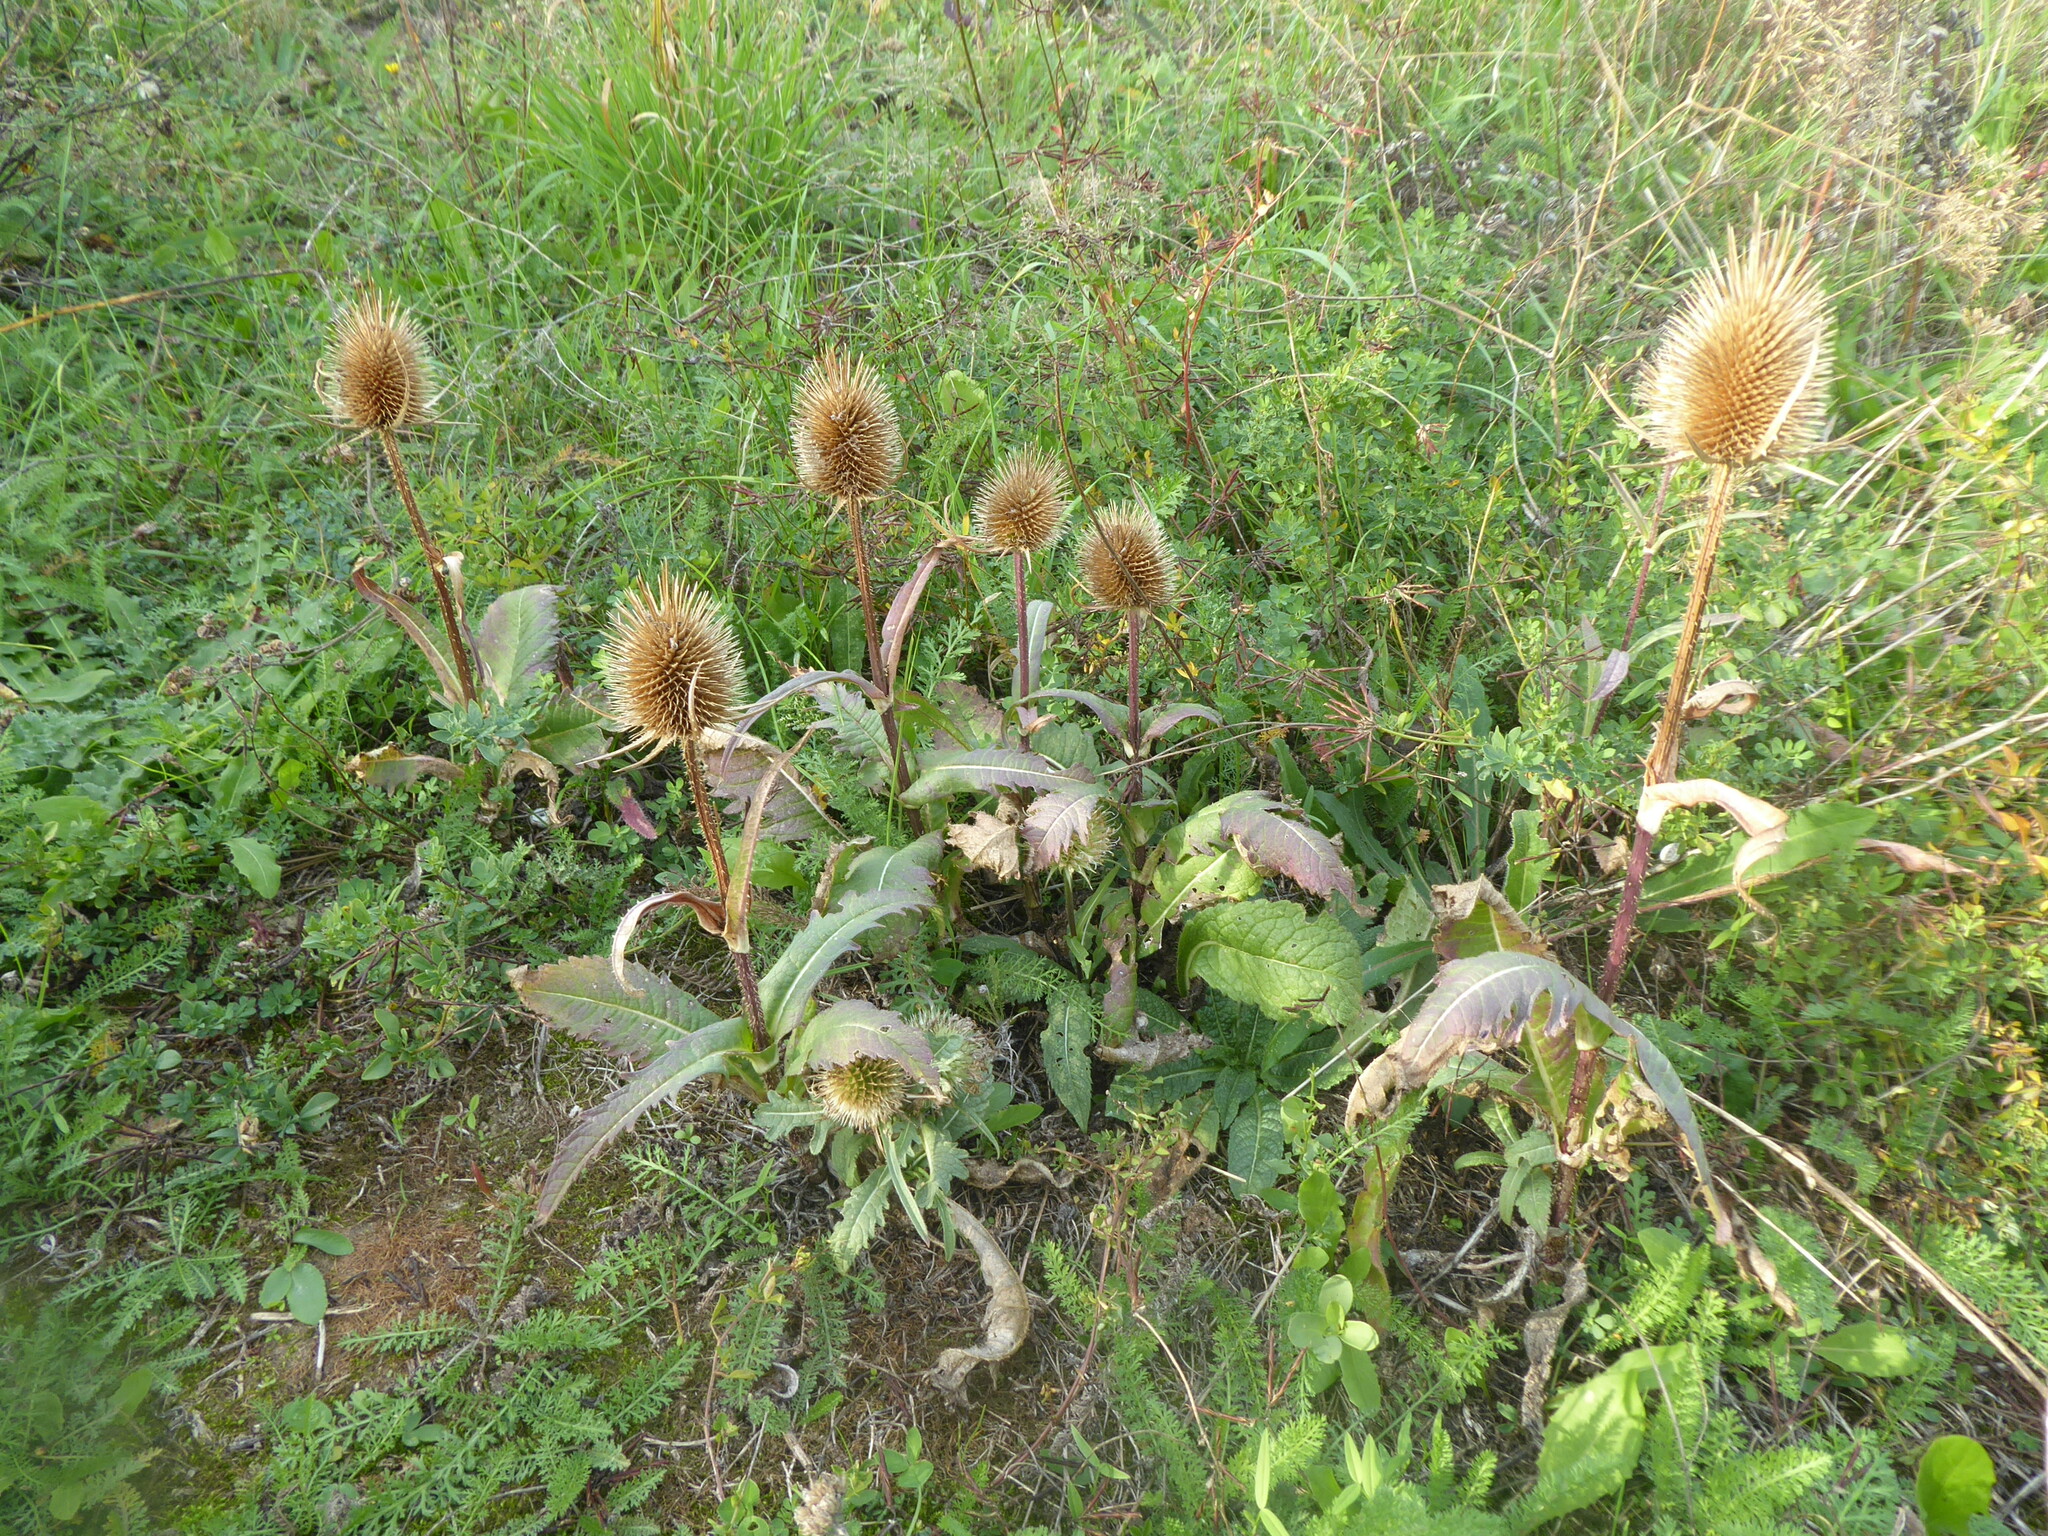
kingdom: Plantae
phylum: Tracheophyta
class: Magnoliopsida
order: Dipsacales
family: Caprifoliaceae
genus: Dipsacus
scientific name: Dipsacus laciniatus
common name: Cut-leaved teasel
